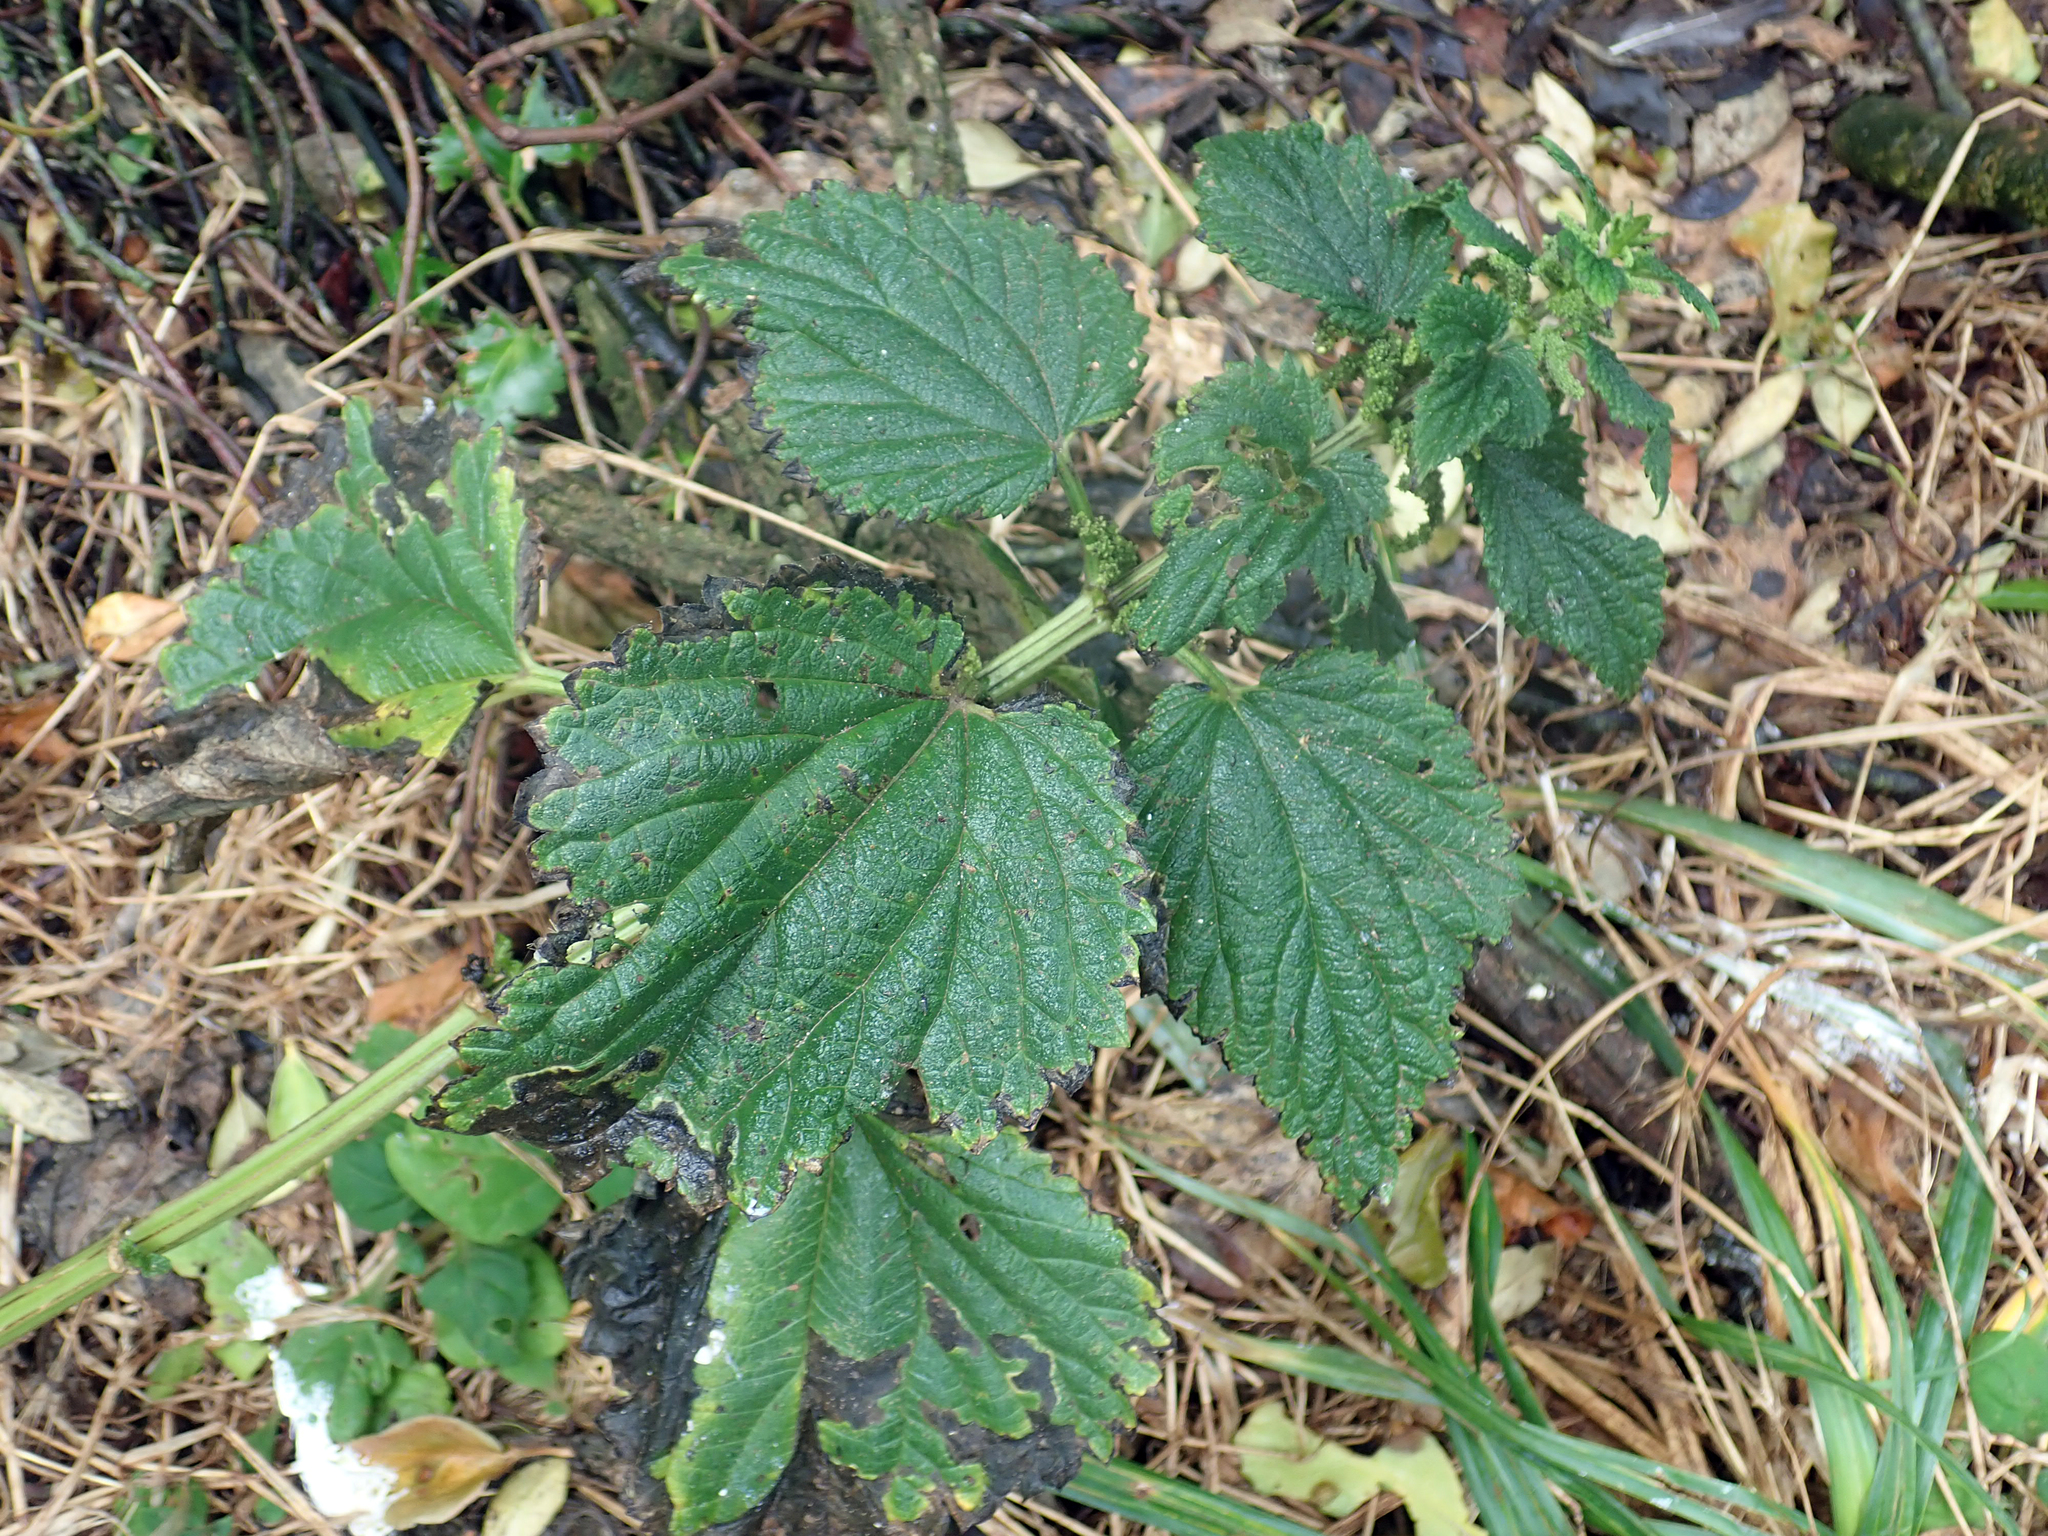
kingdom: Plantae
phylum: Tracheophyta
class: Magnoliopsida
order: Rosales
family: Urticaceae
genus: Urtica
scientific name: Urtica australis
